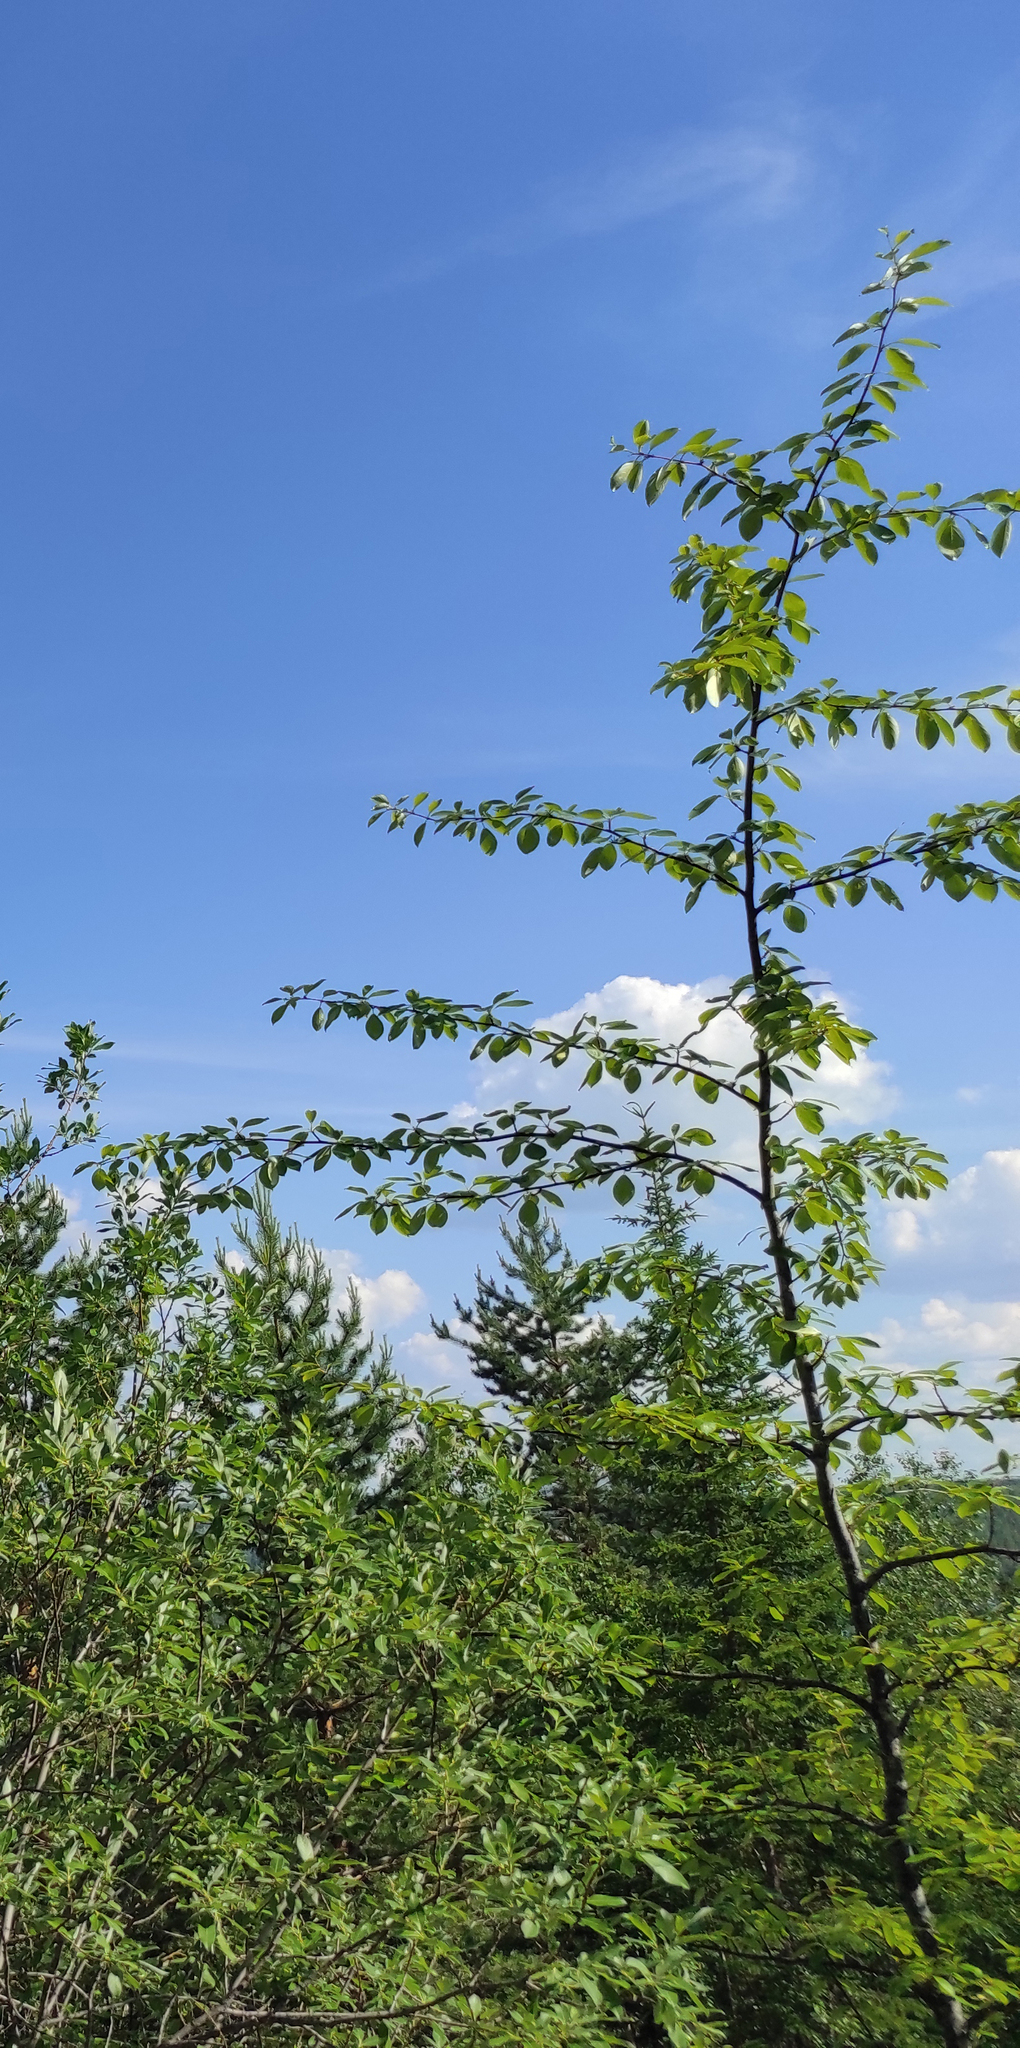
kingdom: Plantae
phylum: Tracheophyta
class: Magnoliopsida
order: Malpighiales
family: Salicaceae
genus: Populus
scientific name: Populus suaveolens
